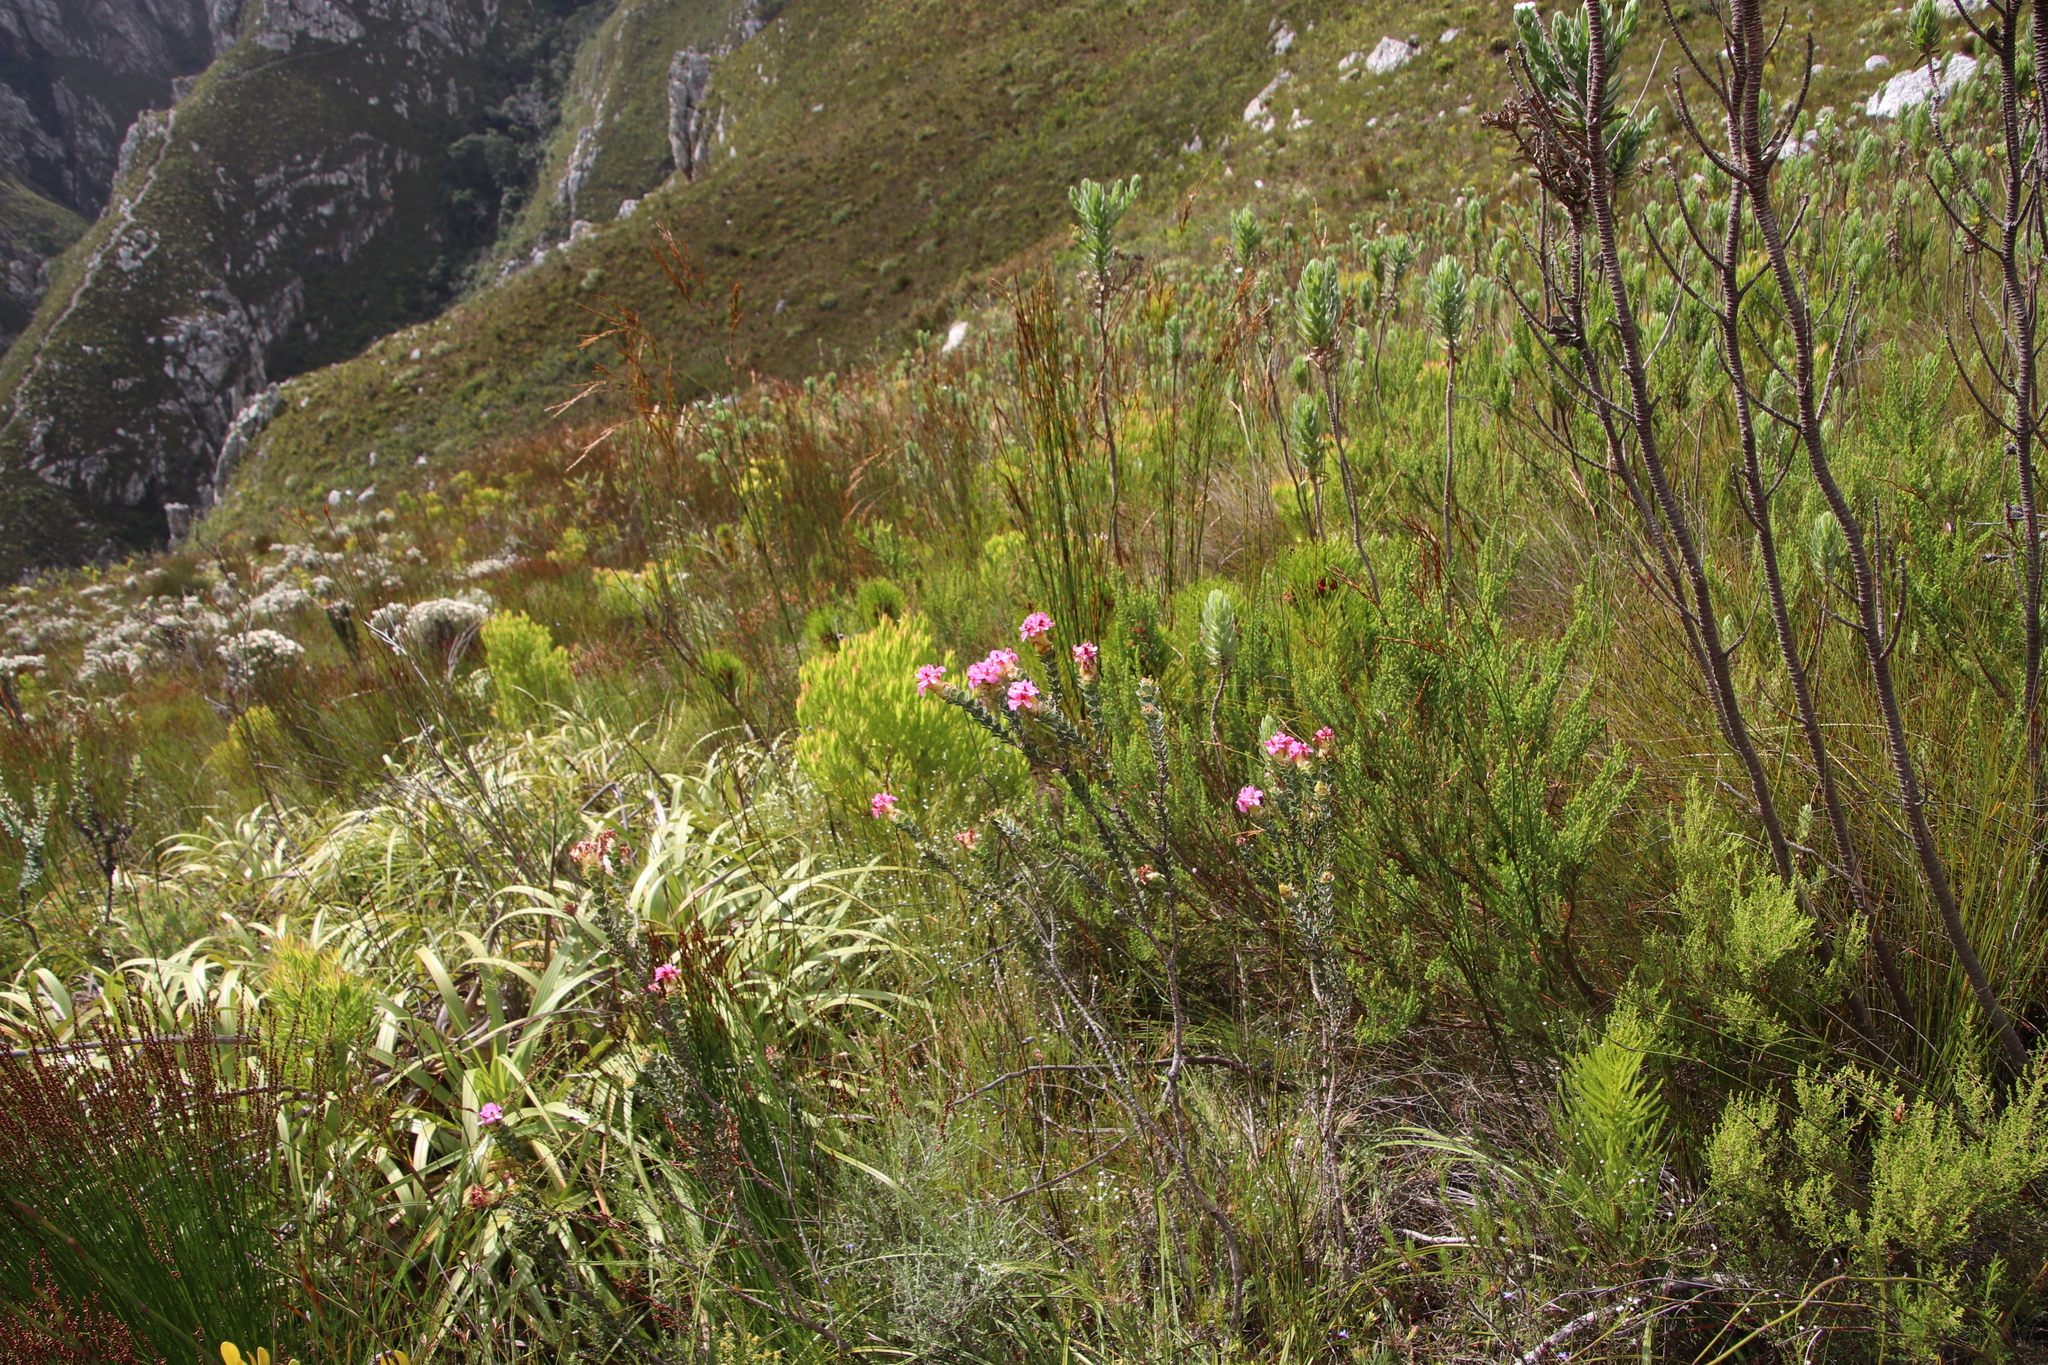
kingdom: Plantae
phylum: Tracheophyta
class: Magnoliopsida
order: Myrtales
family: Penaeaceae
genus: Saltera
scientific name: Saltera sarcocolla
